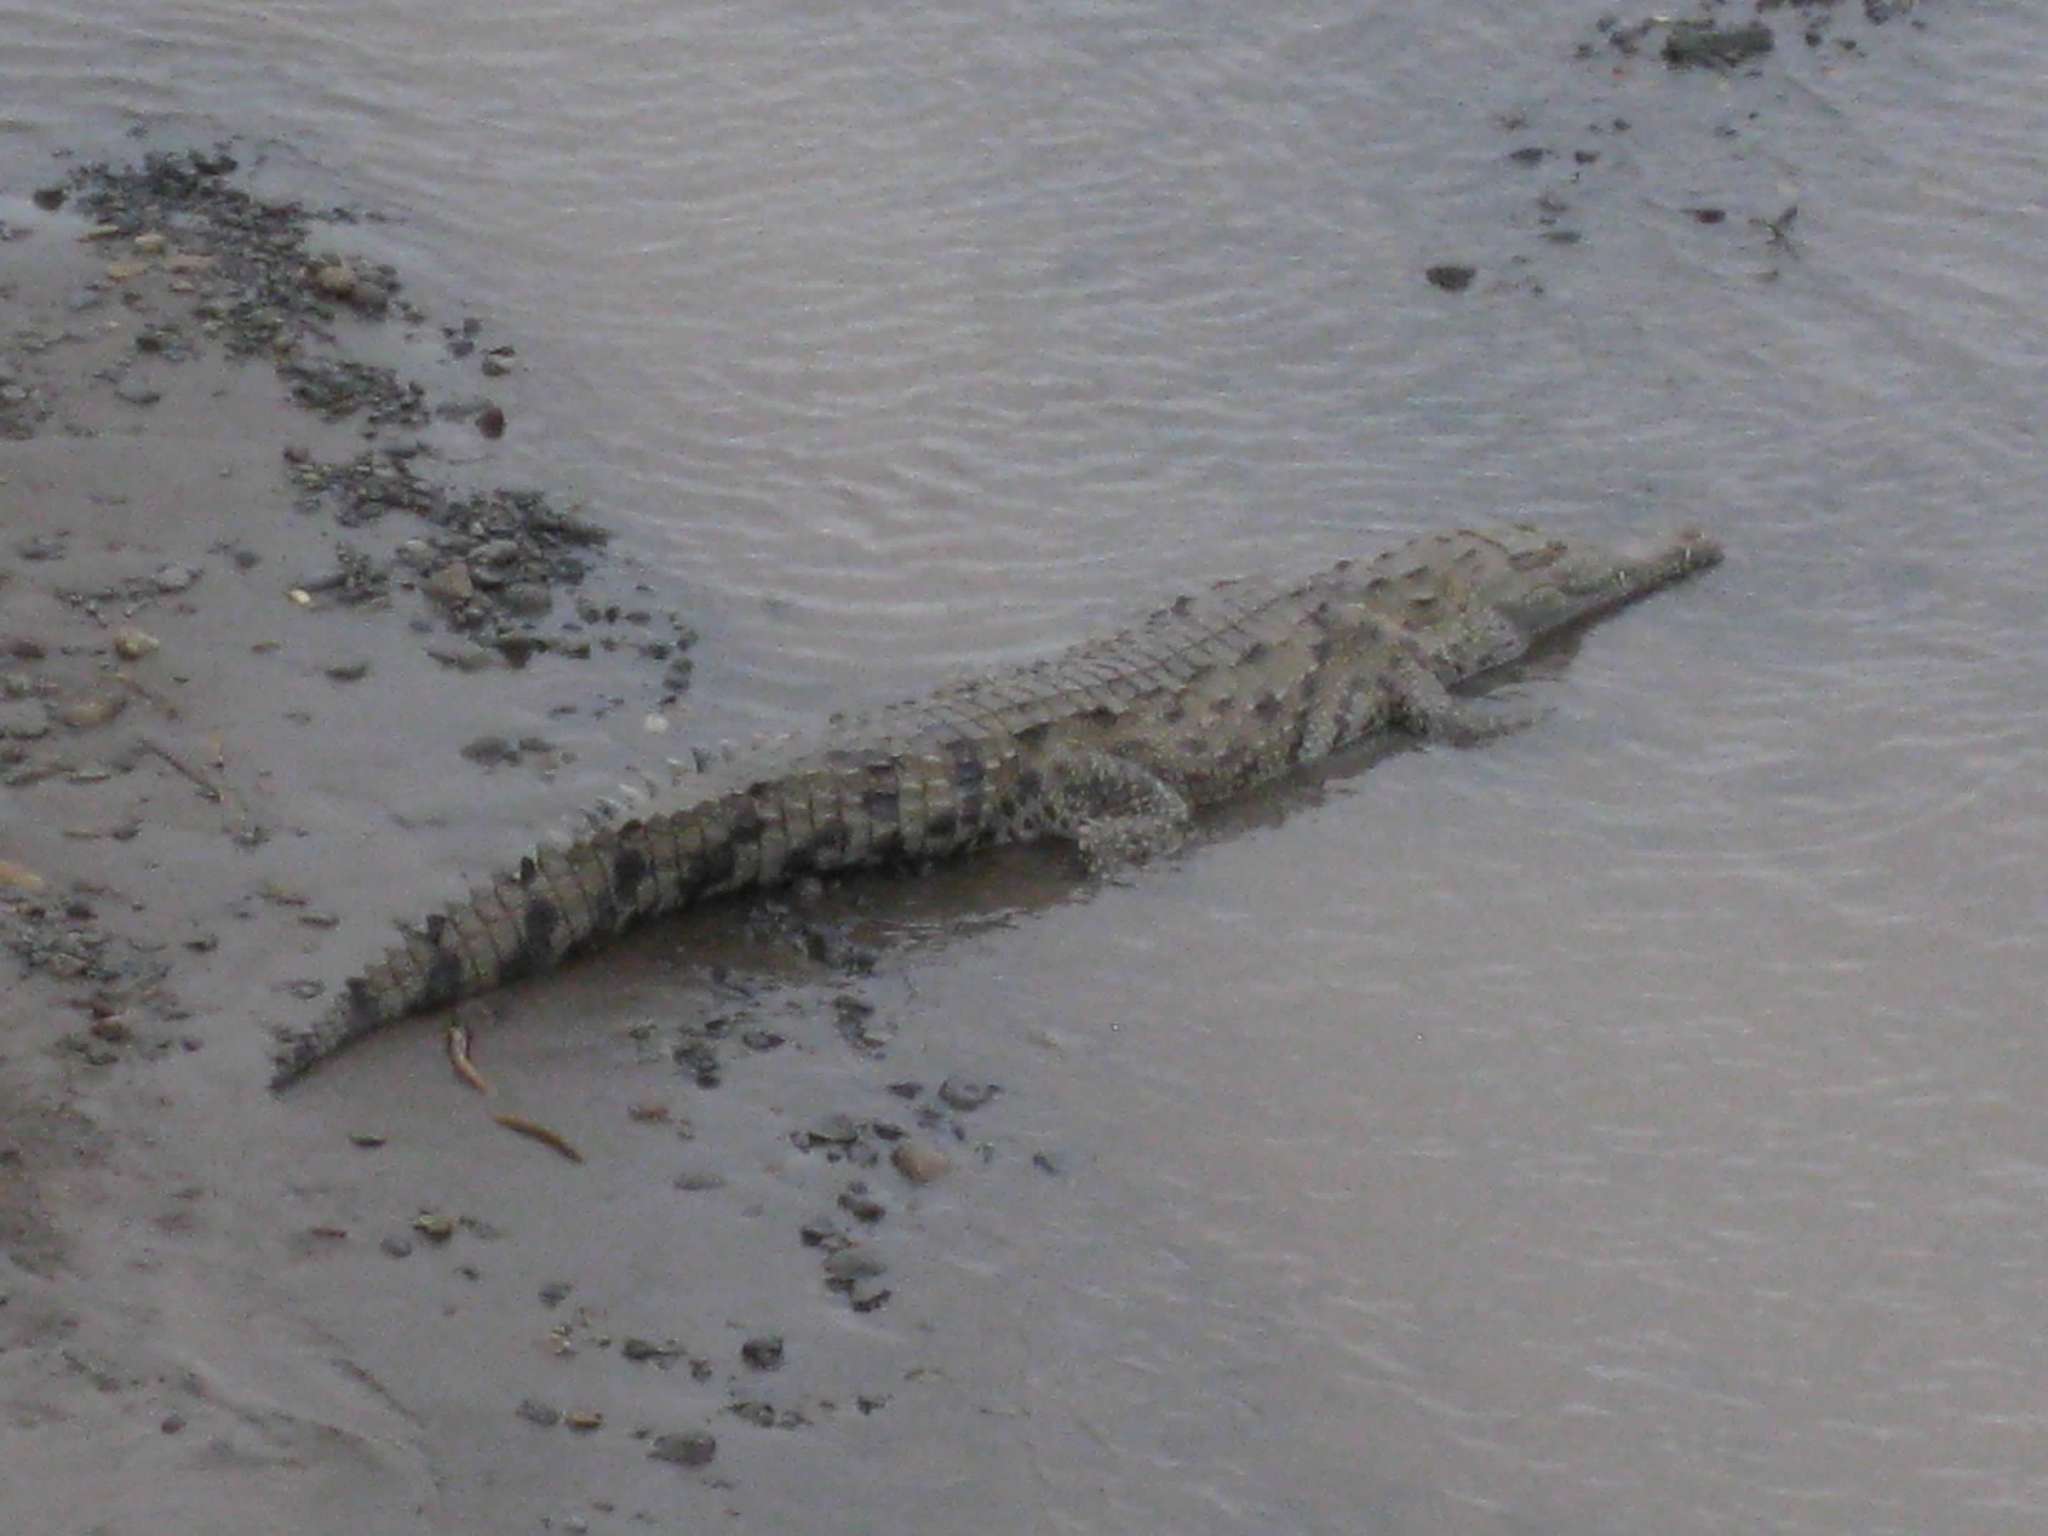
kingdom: Animalia
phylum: Chordata
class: Crocodylia
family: Crocodylidae
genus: Crocodylus
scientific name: Crocodylus acutus
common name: American crocodile
